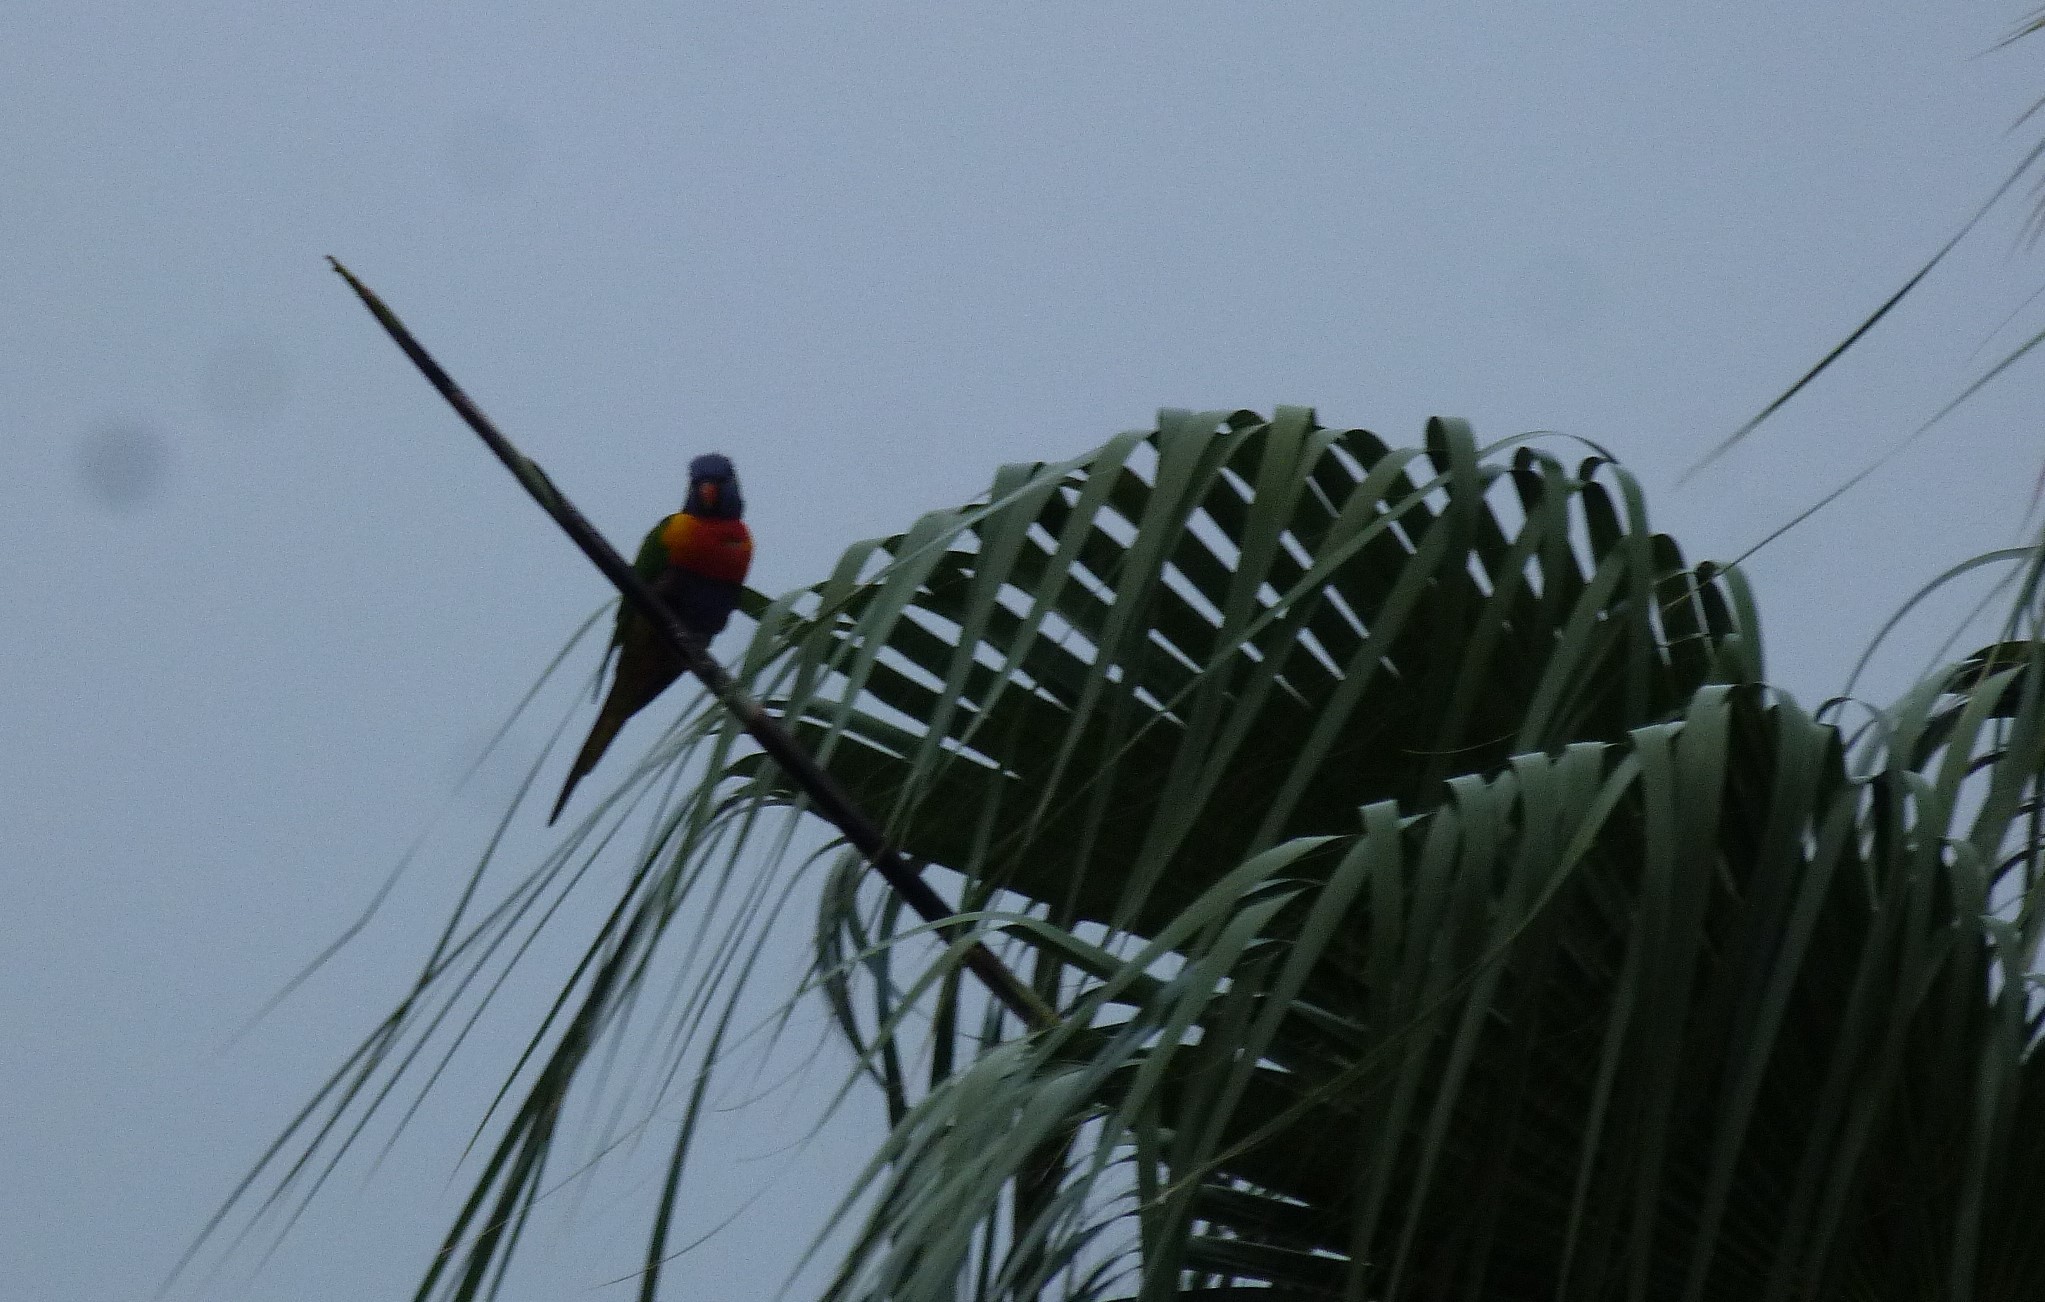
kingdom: Animalia
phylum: Chordata
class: Aves
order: Psittaciformes
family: Psittacidae
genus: Trichoglossus
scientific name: Trichoglossus haematodus
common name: Coconut lorikeet
